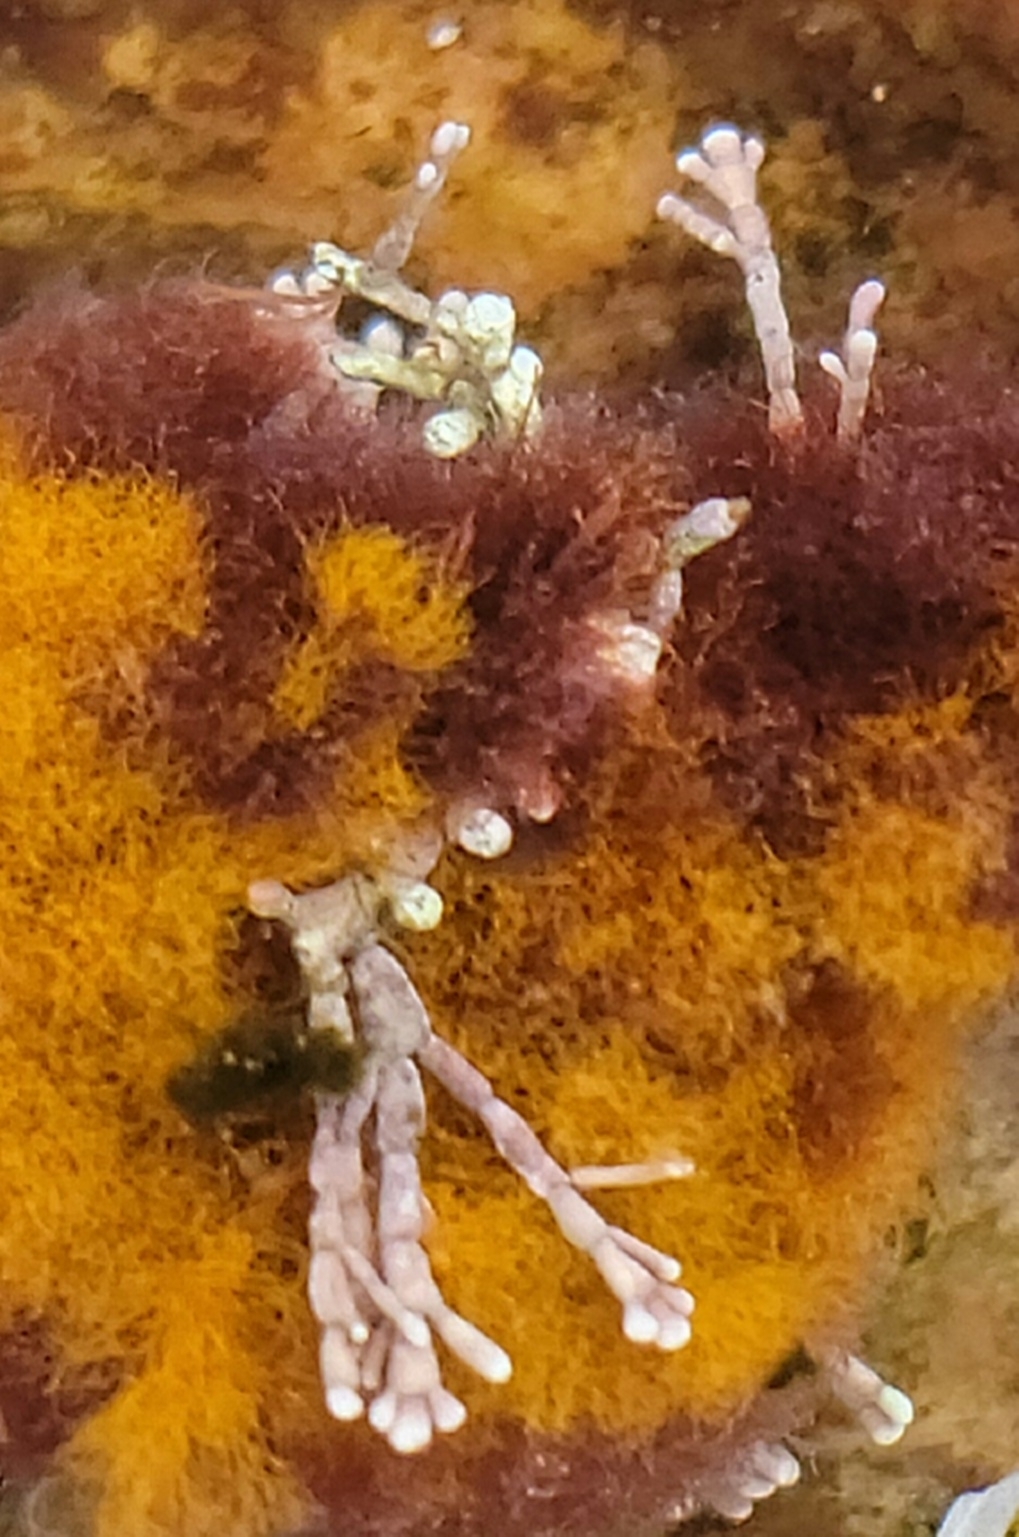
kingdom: Plantae
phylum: Rhodophyta
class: Florideophyceae
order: Corallinales
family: Corallinaceae
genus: Corallina
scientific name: Corallina officinalis
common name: Coral weed
